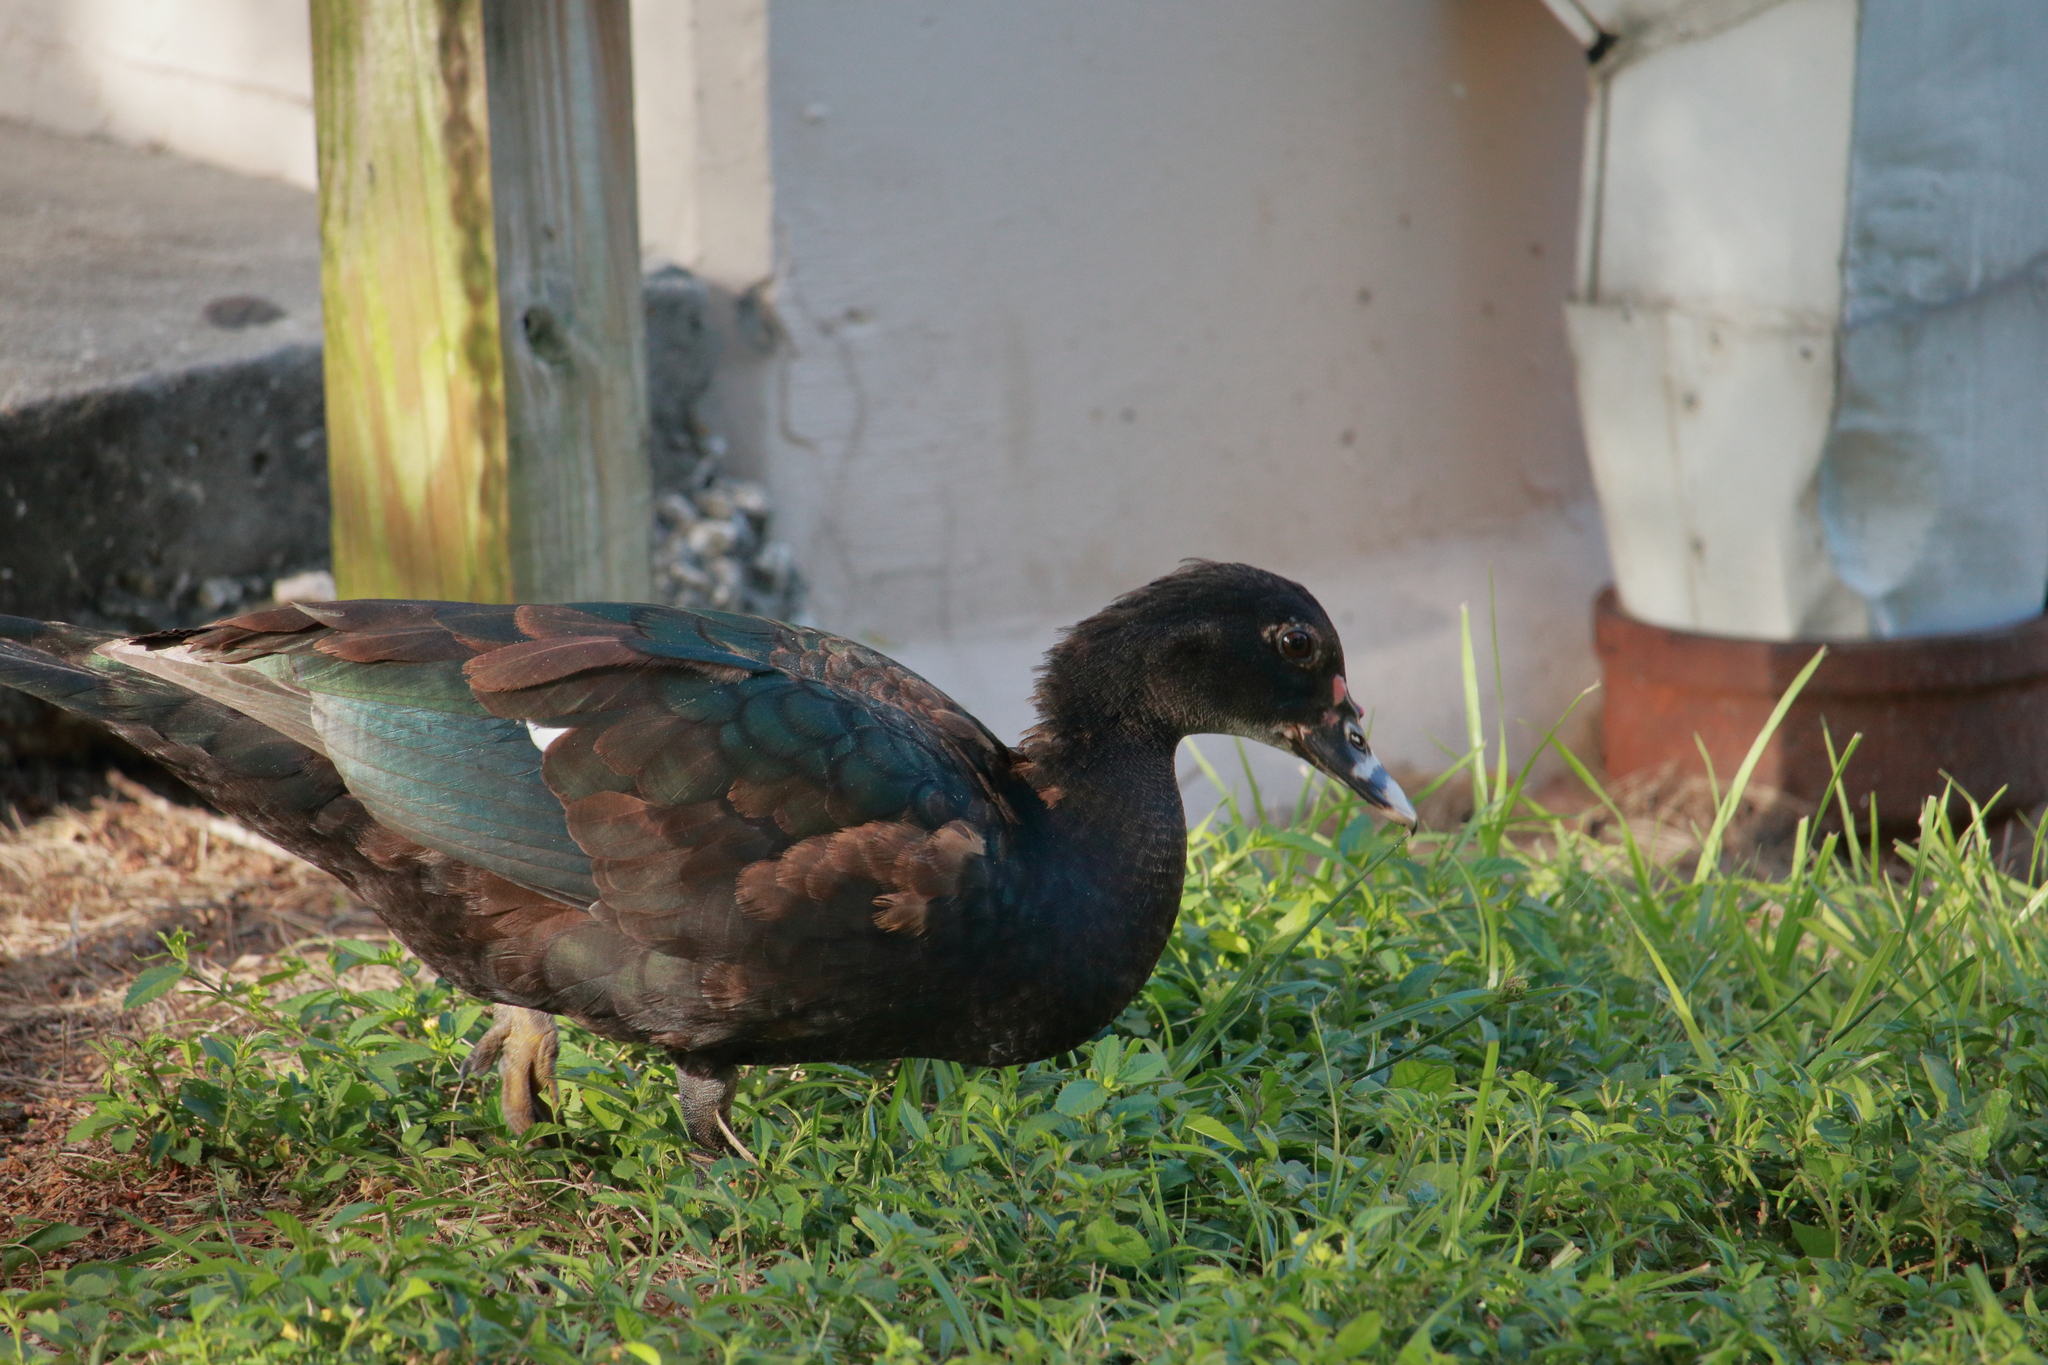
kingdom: Animalia
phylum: Chordata
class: Aves
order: Anseriformes
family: Anatidae
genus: Cairina
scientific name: Cairina moschata
